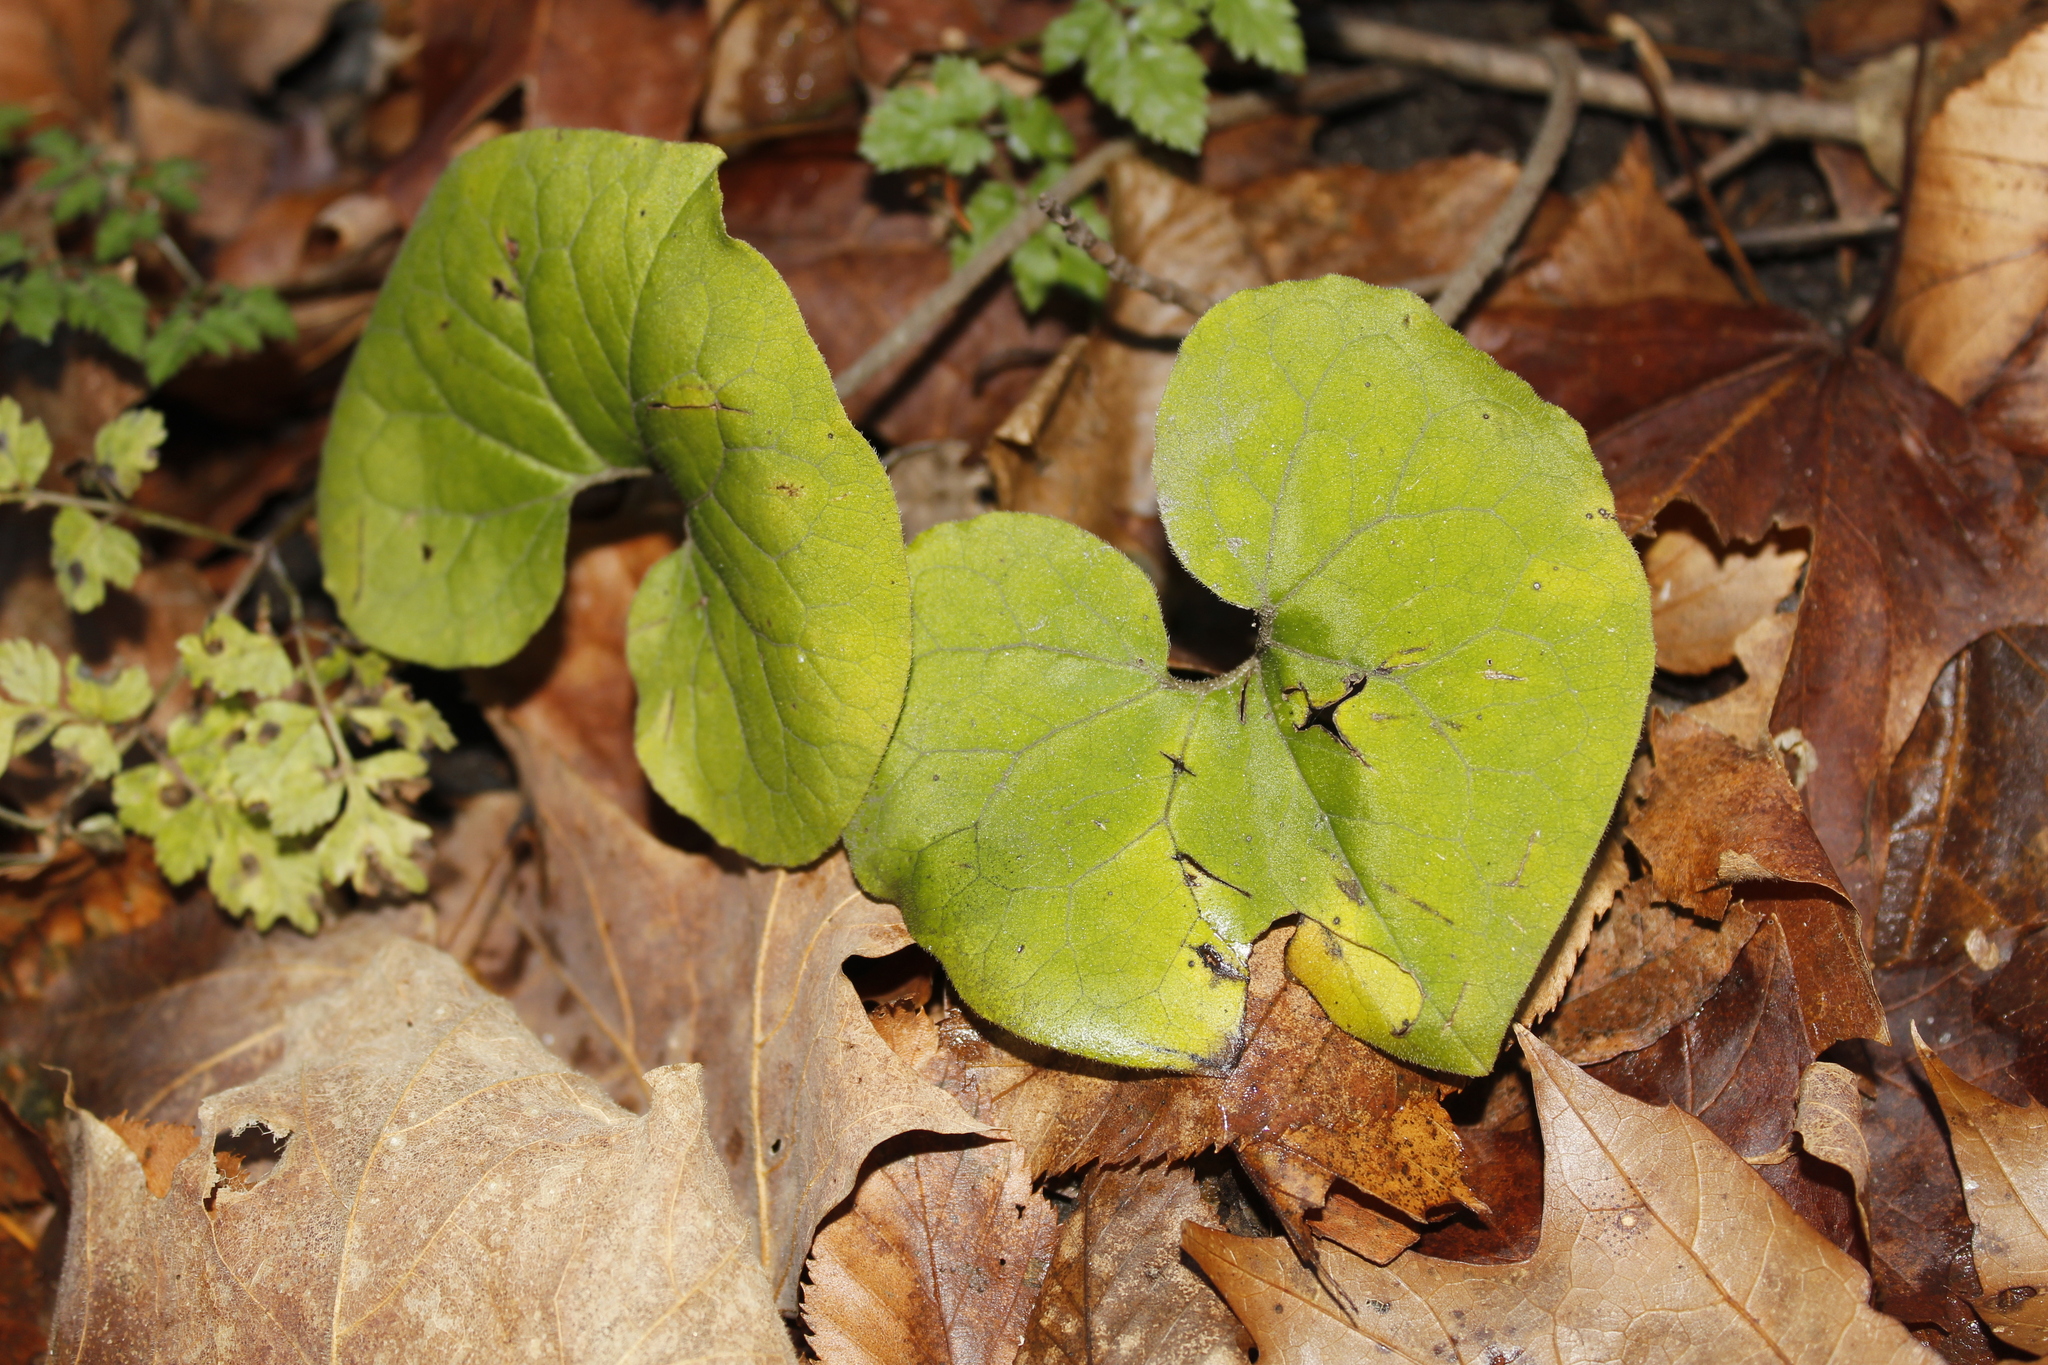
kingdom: Plantae
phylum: Tracheophyta
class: Magnoliopsida
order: Piperales
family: Aristolochiaceae
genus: Asarum
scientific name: Asarum canadense
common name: Wild ginger
